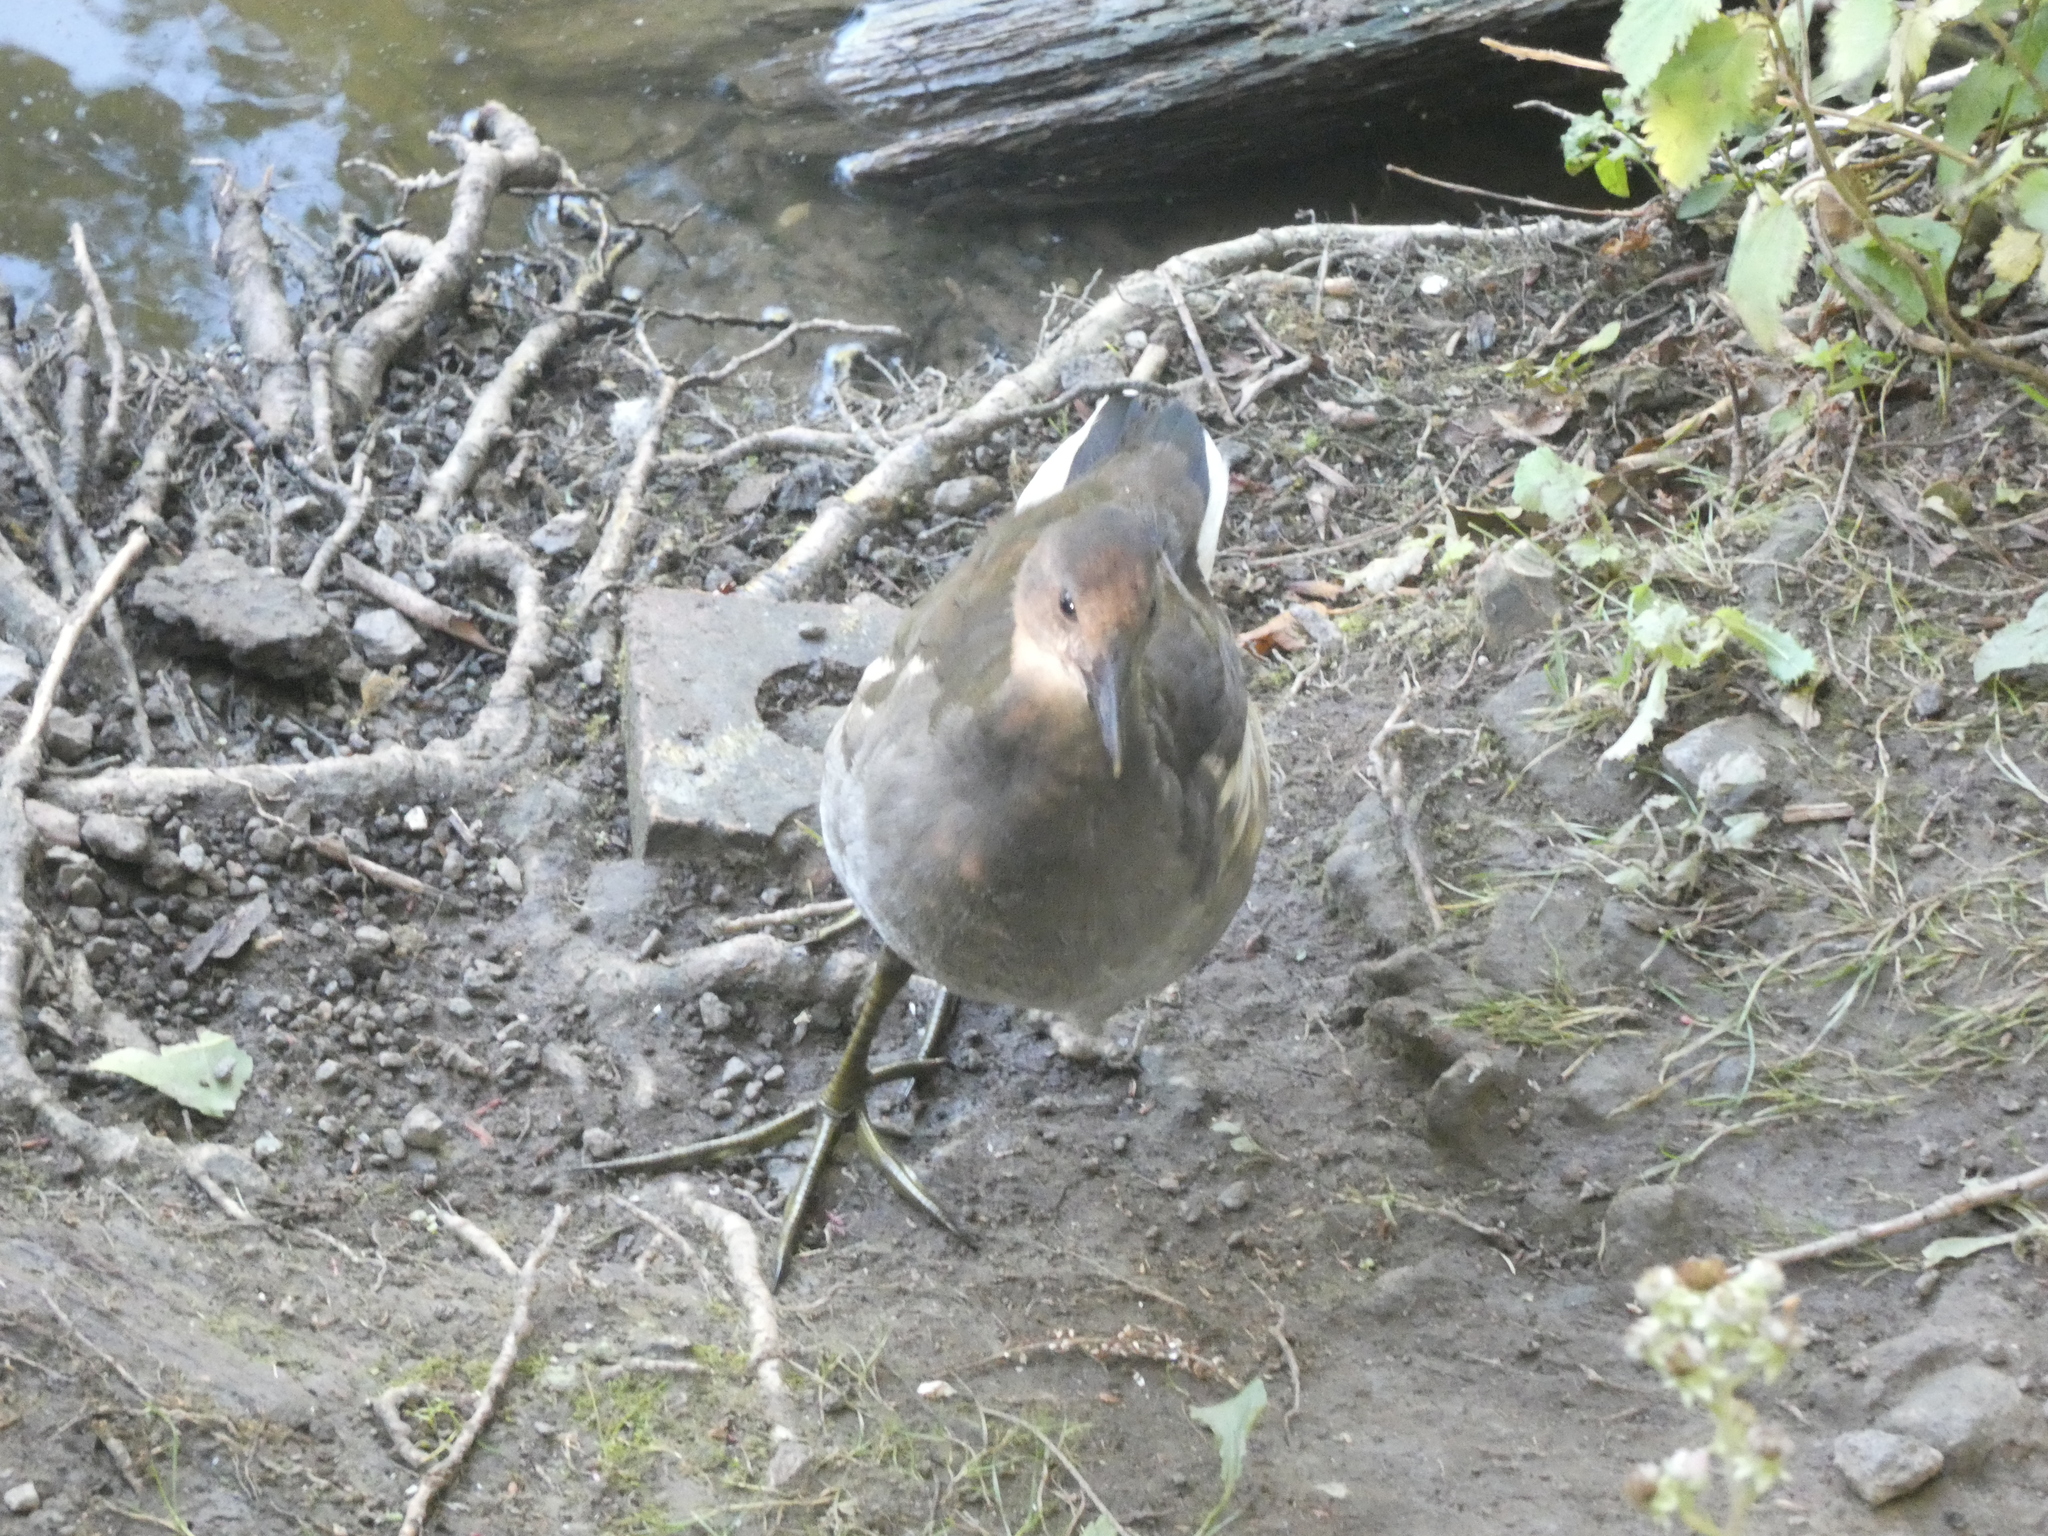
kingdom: Animalia
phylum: Chordata
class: Aves
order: Gruiformes
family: Rallidae
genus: Gallinula
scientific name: Gallinula chloropus
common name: Common moorhen
